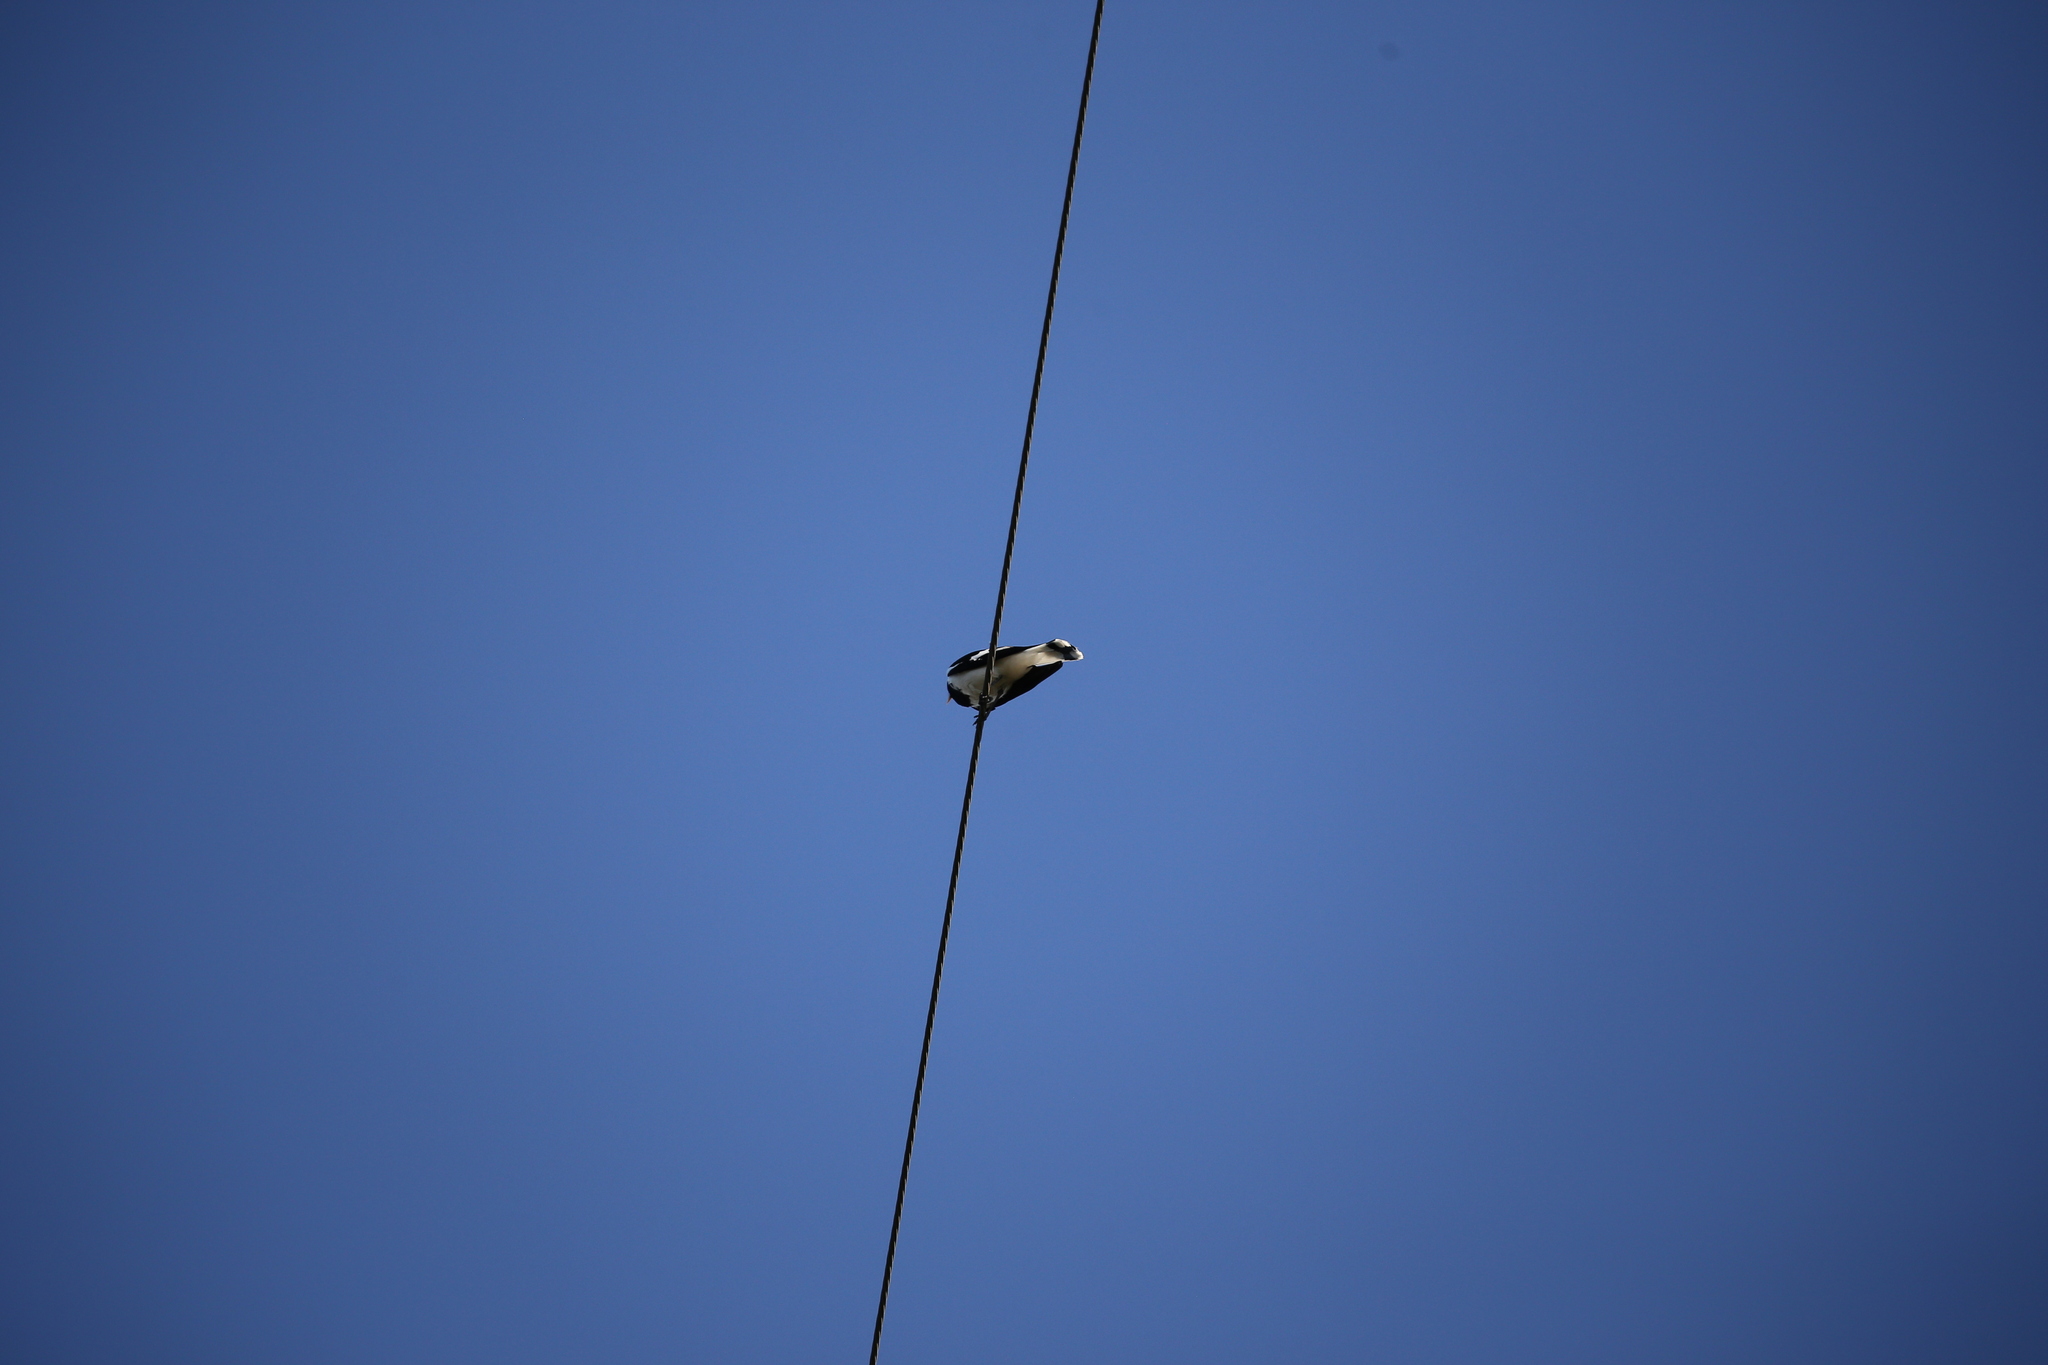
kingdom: Animalia
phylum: Chordata
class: Aves
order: Passeriformes
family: Monarchidae
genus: Grallina
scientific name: Grallina cyanoleuca
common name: Magpie-lark
